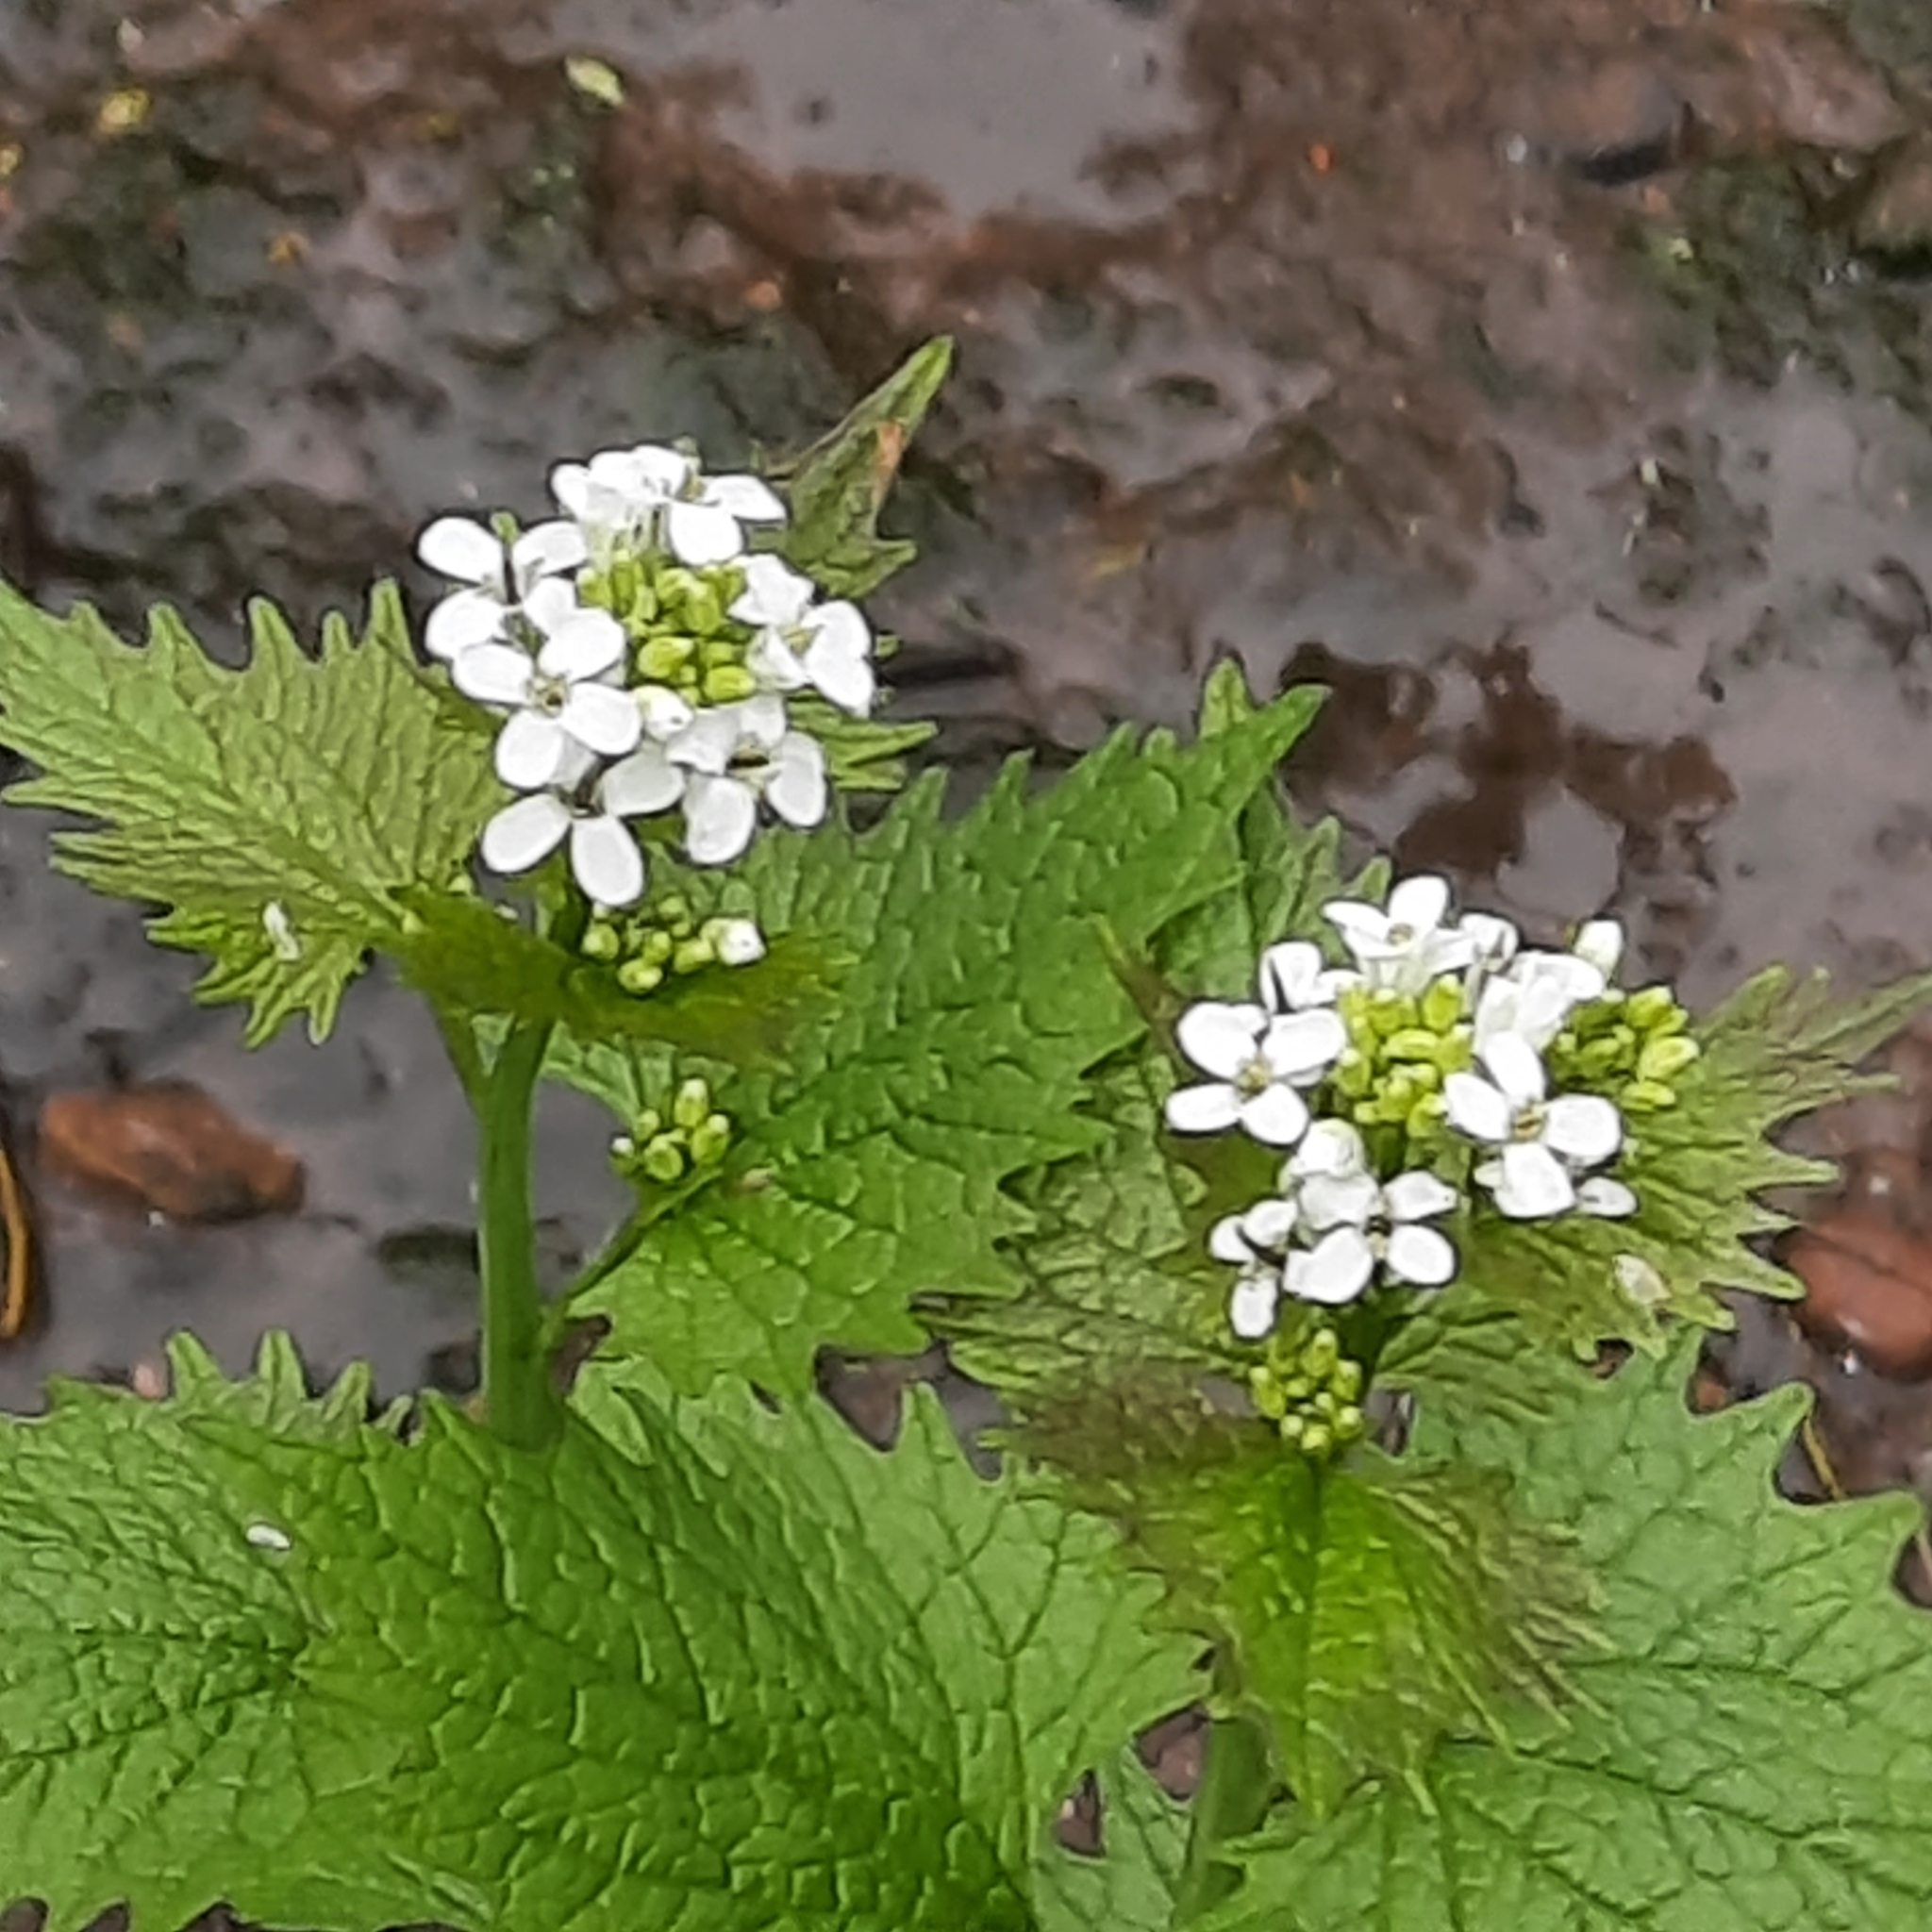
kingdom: Plantae
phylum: Tracheophyta
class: Magnoliopsida
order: Brassicales
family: Brassicaceae
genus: Alliaria
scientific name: Alliaria petiolata
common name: Garlic mustard
